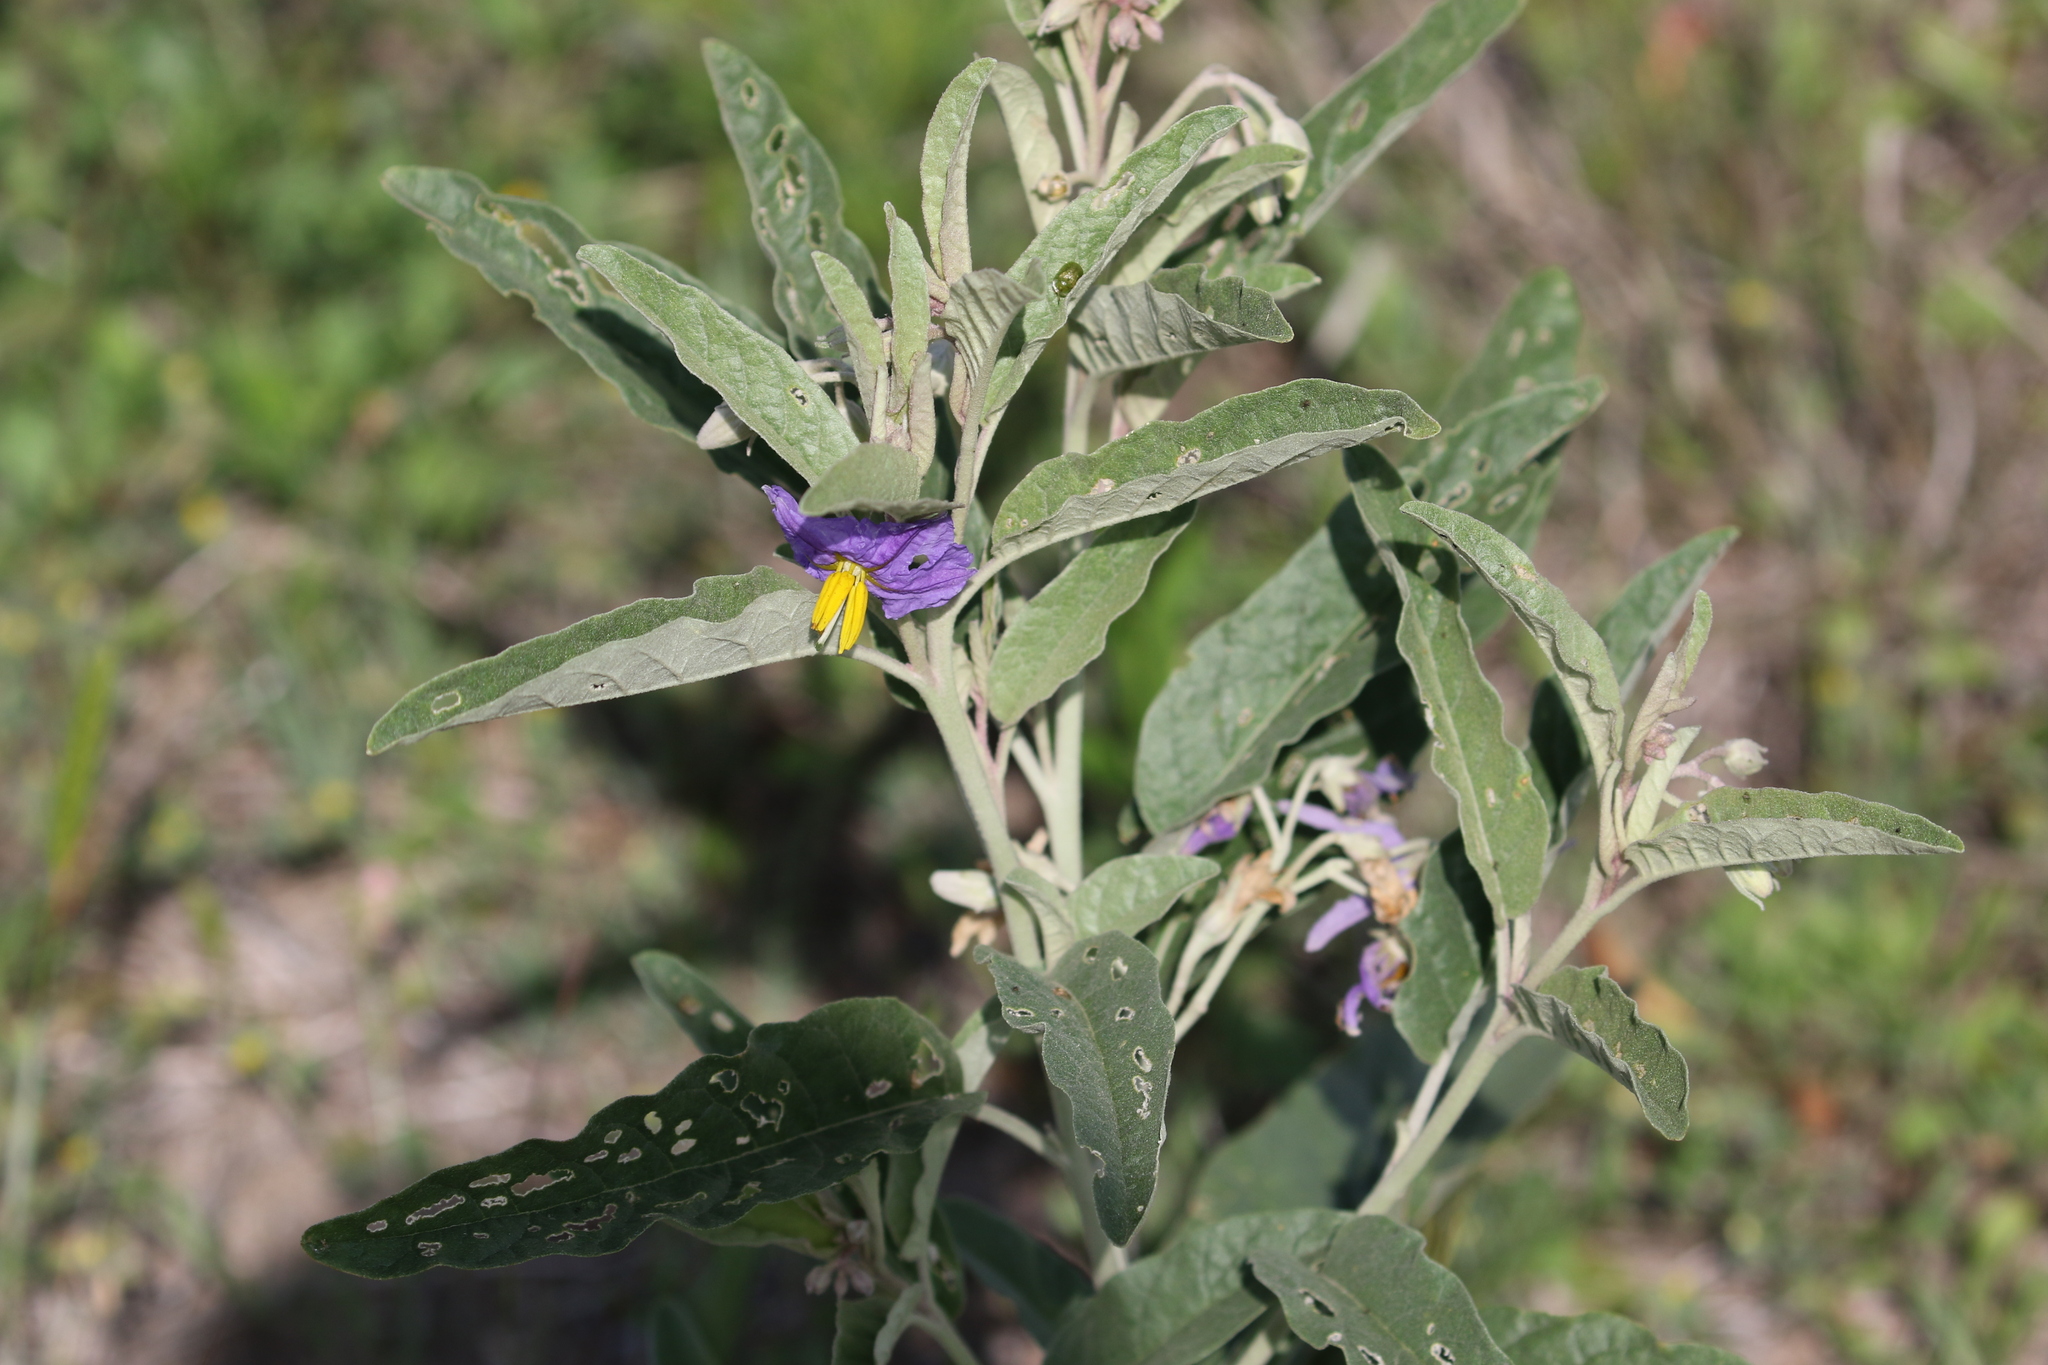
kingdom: Plantae
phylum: Tracheophyta
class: Magnoliopsida
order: Solanales
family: Solanaceae
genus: Solanum
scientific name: Solanum elaeagnifolium
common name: Silverleaf nightshade
